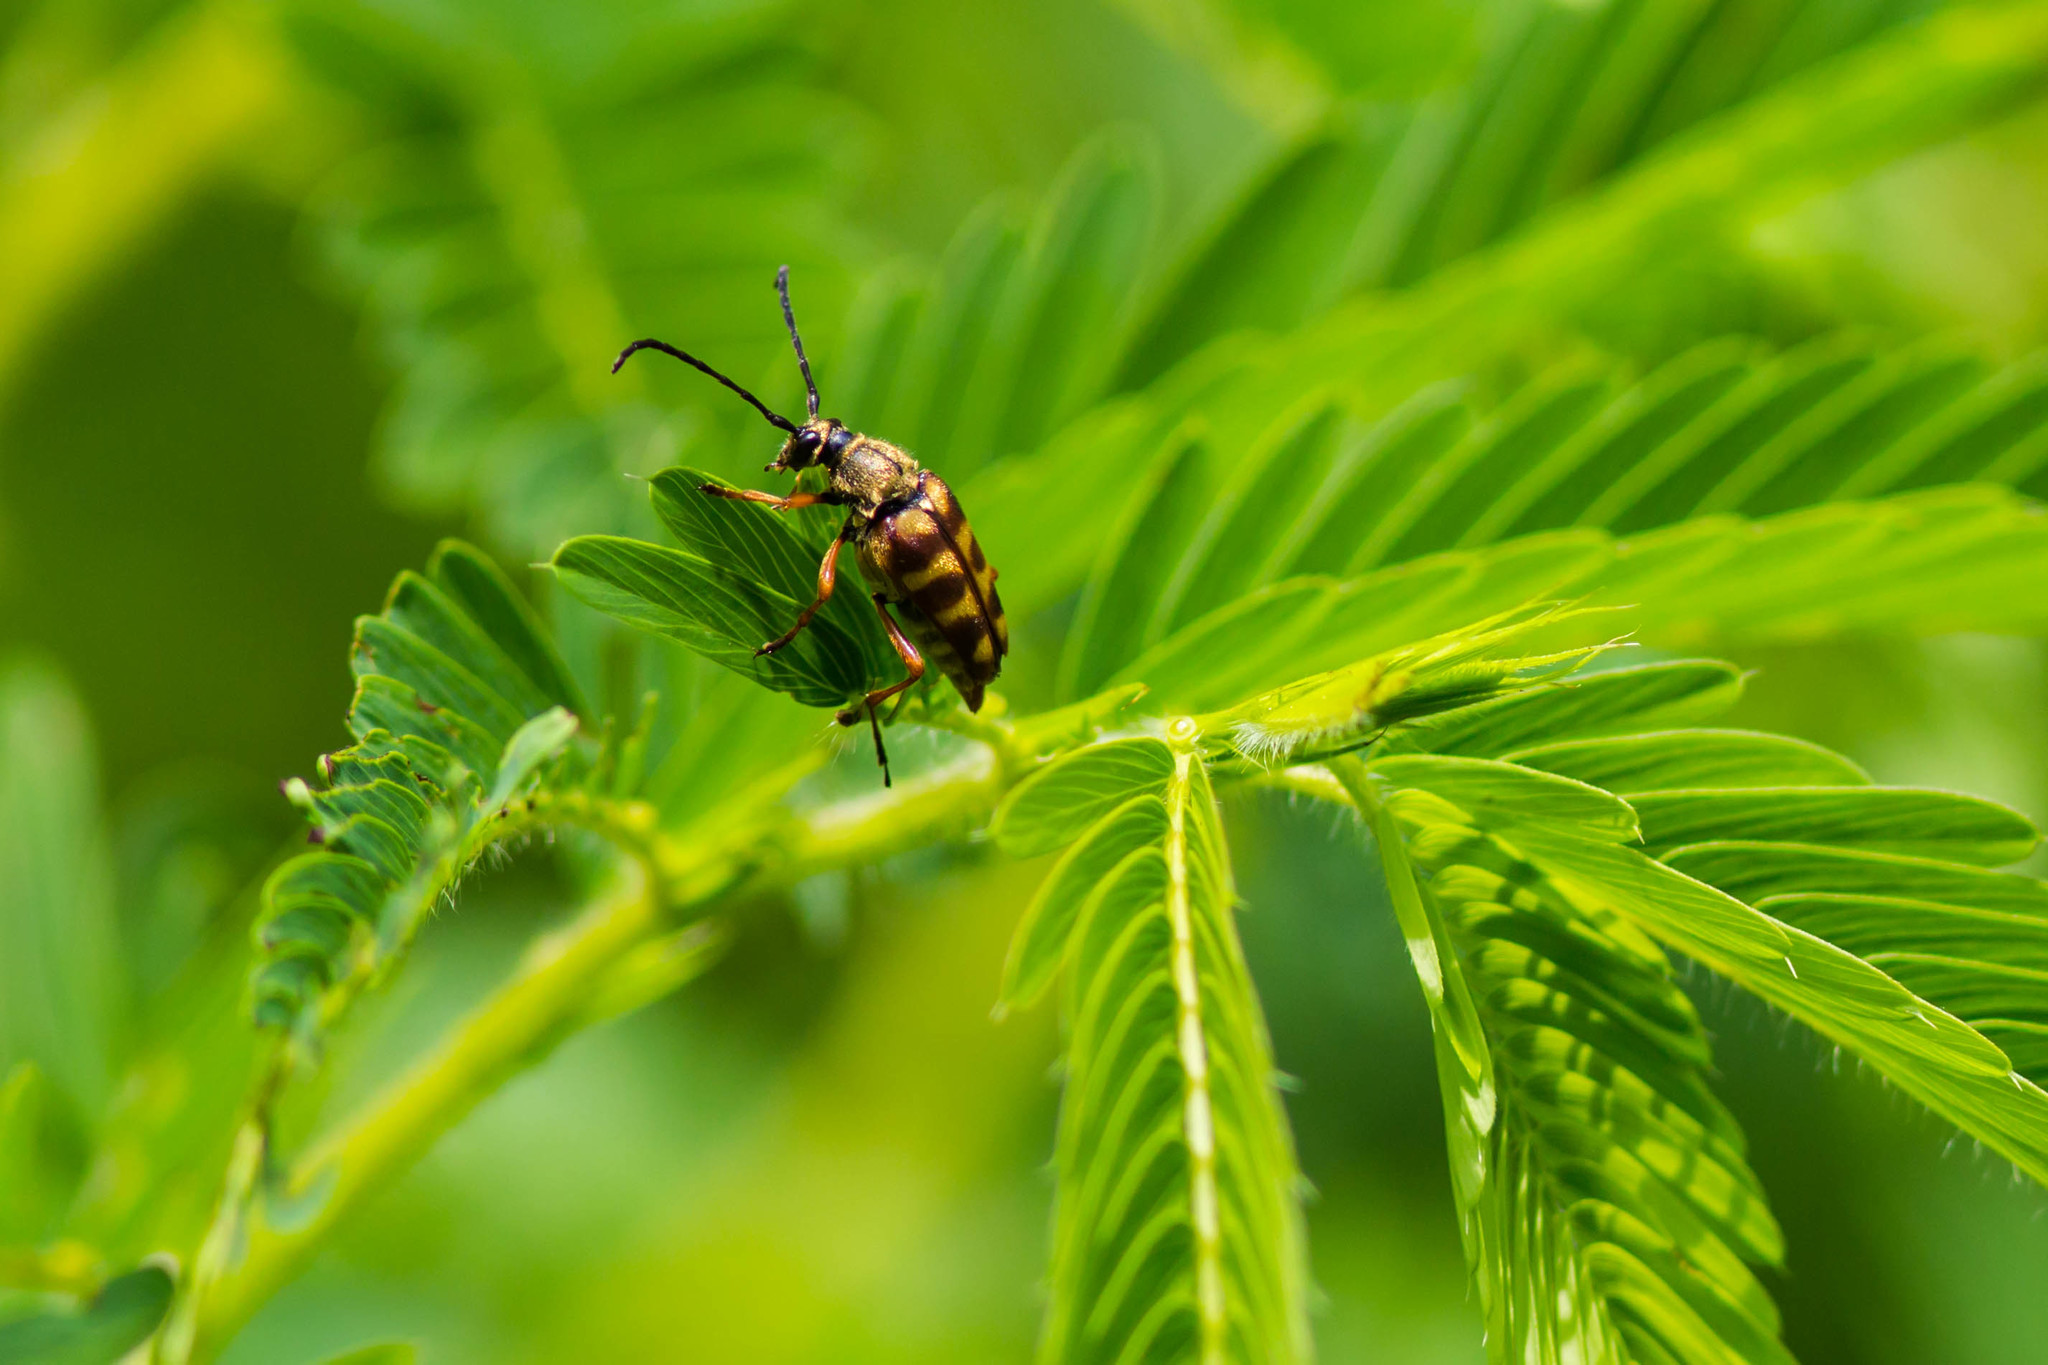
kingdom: Animalia
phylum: Arthropoda
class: Insecta
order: Coleoptera
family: Cerambycidae
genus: Typocerus
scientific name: Typocerus velutinus
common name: Banded longhorn beetle
